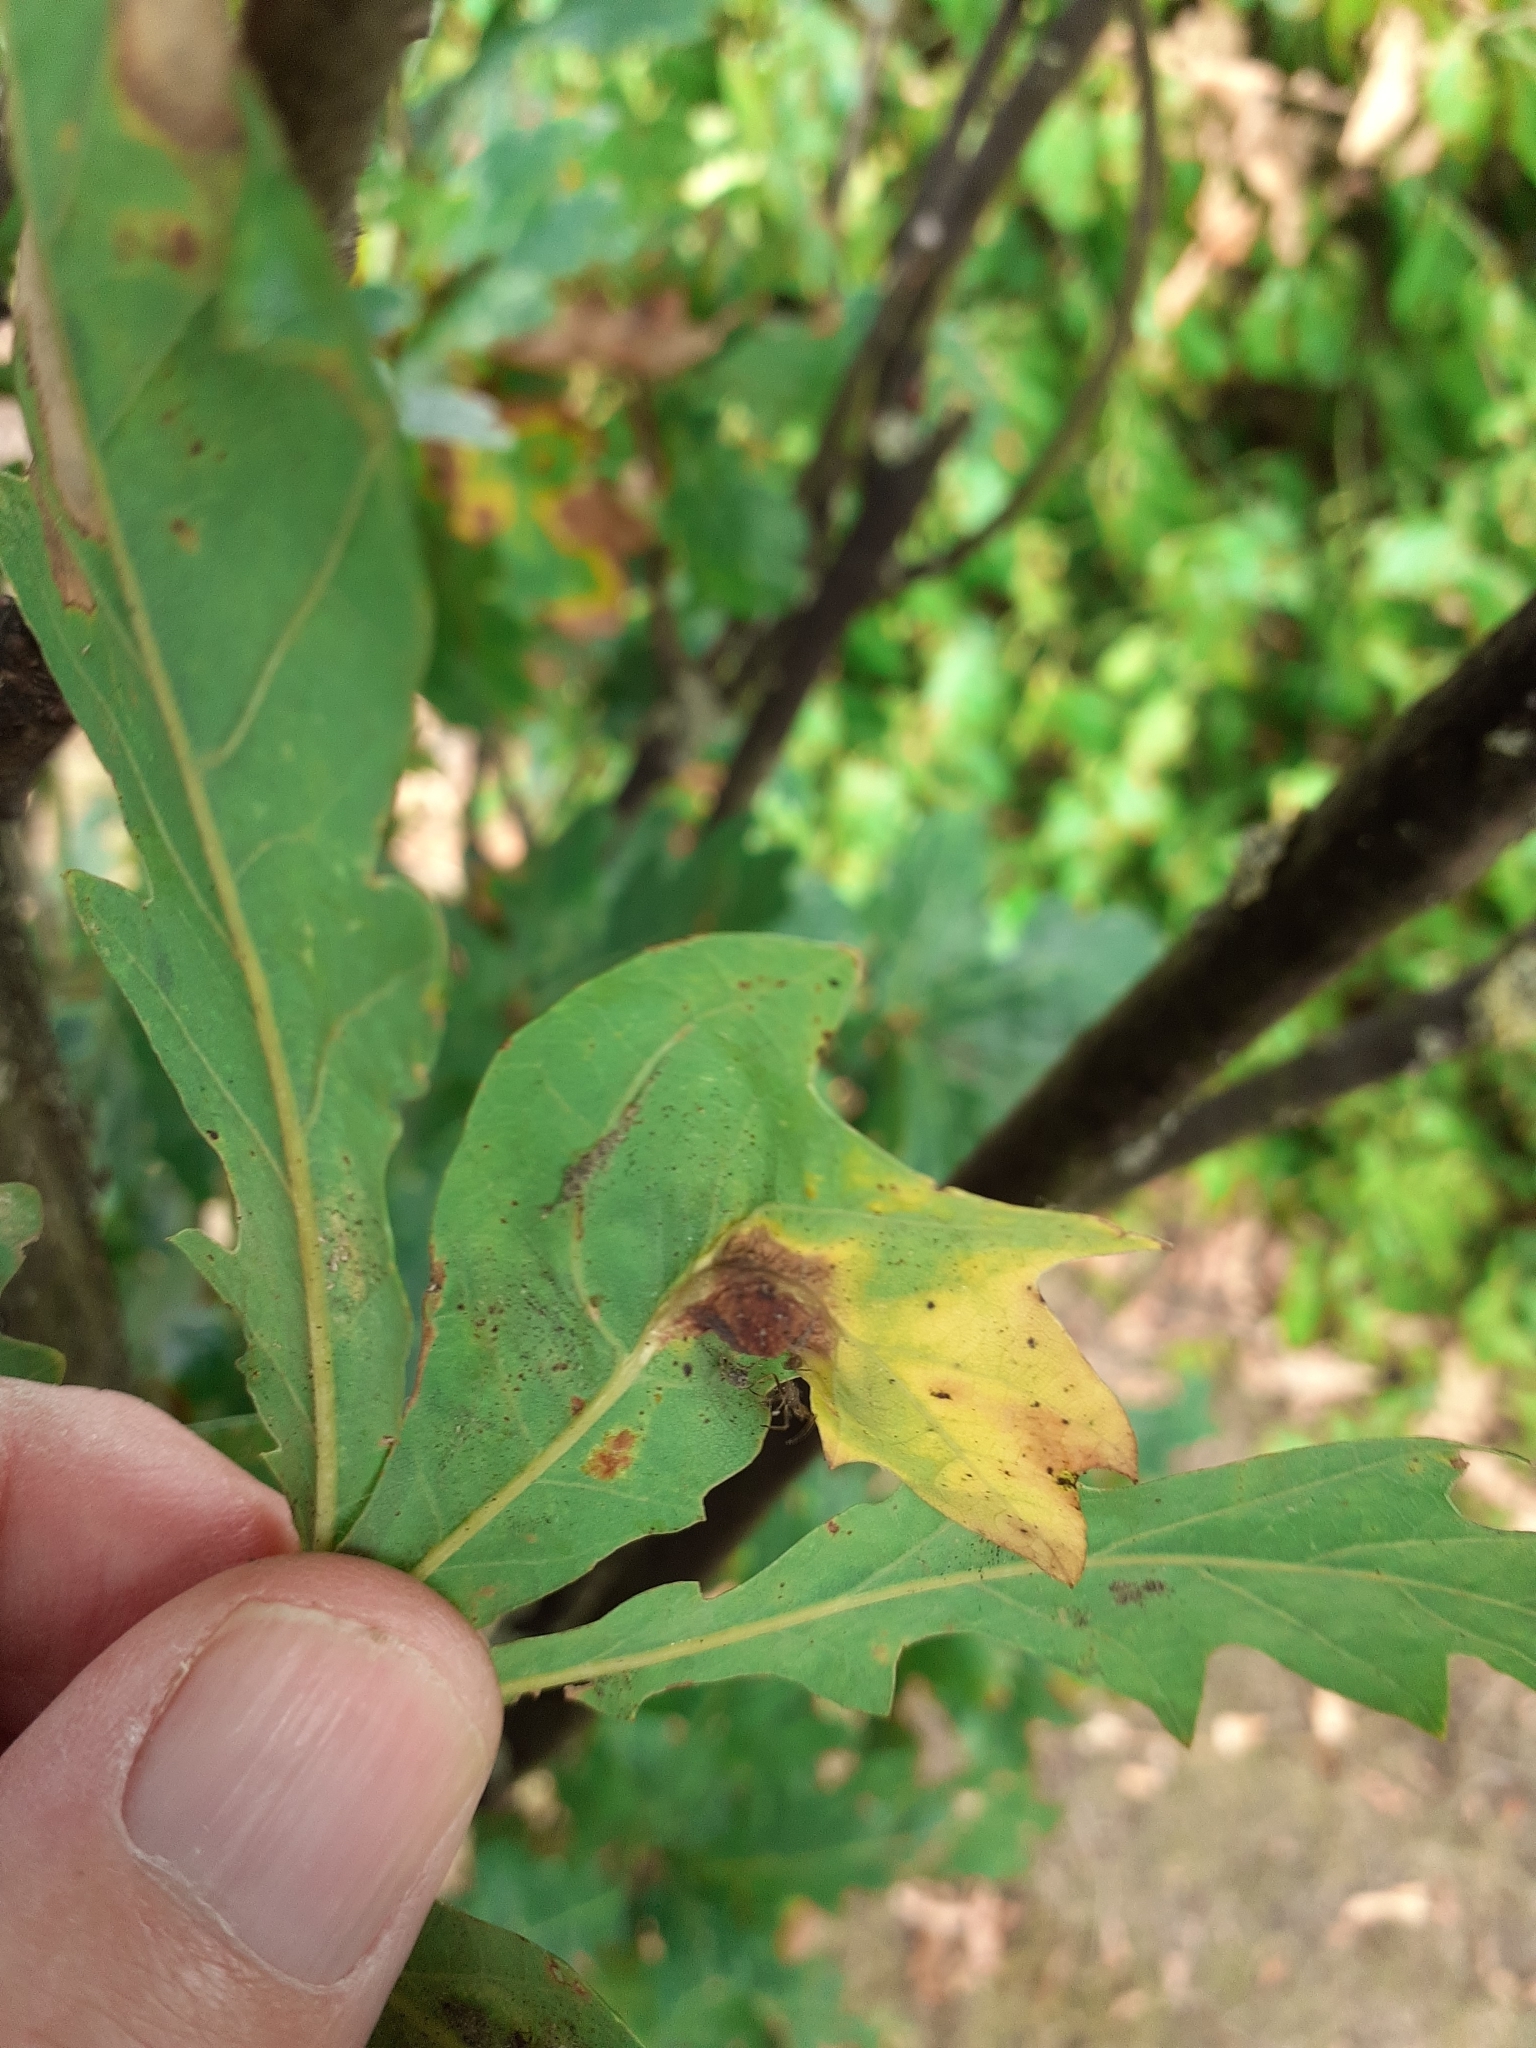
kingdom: Animalia
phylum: Arthropoda
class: Insecta
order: Hymenoptera
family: Cynipidae
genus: Andricus
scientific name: Andricus curvator
